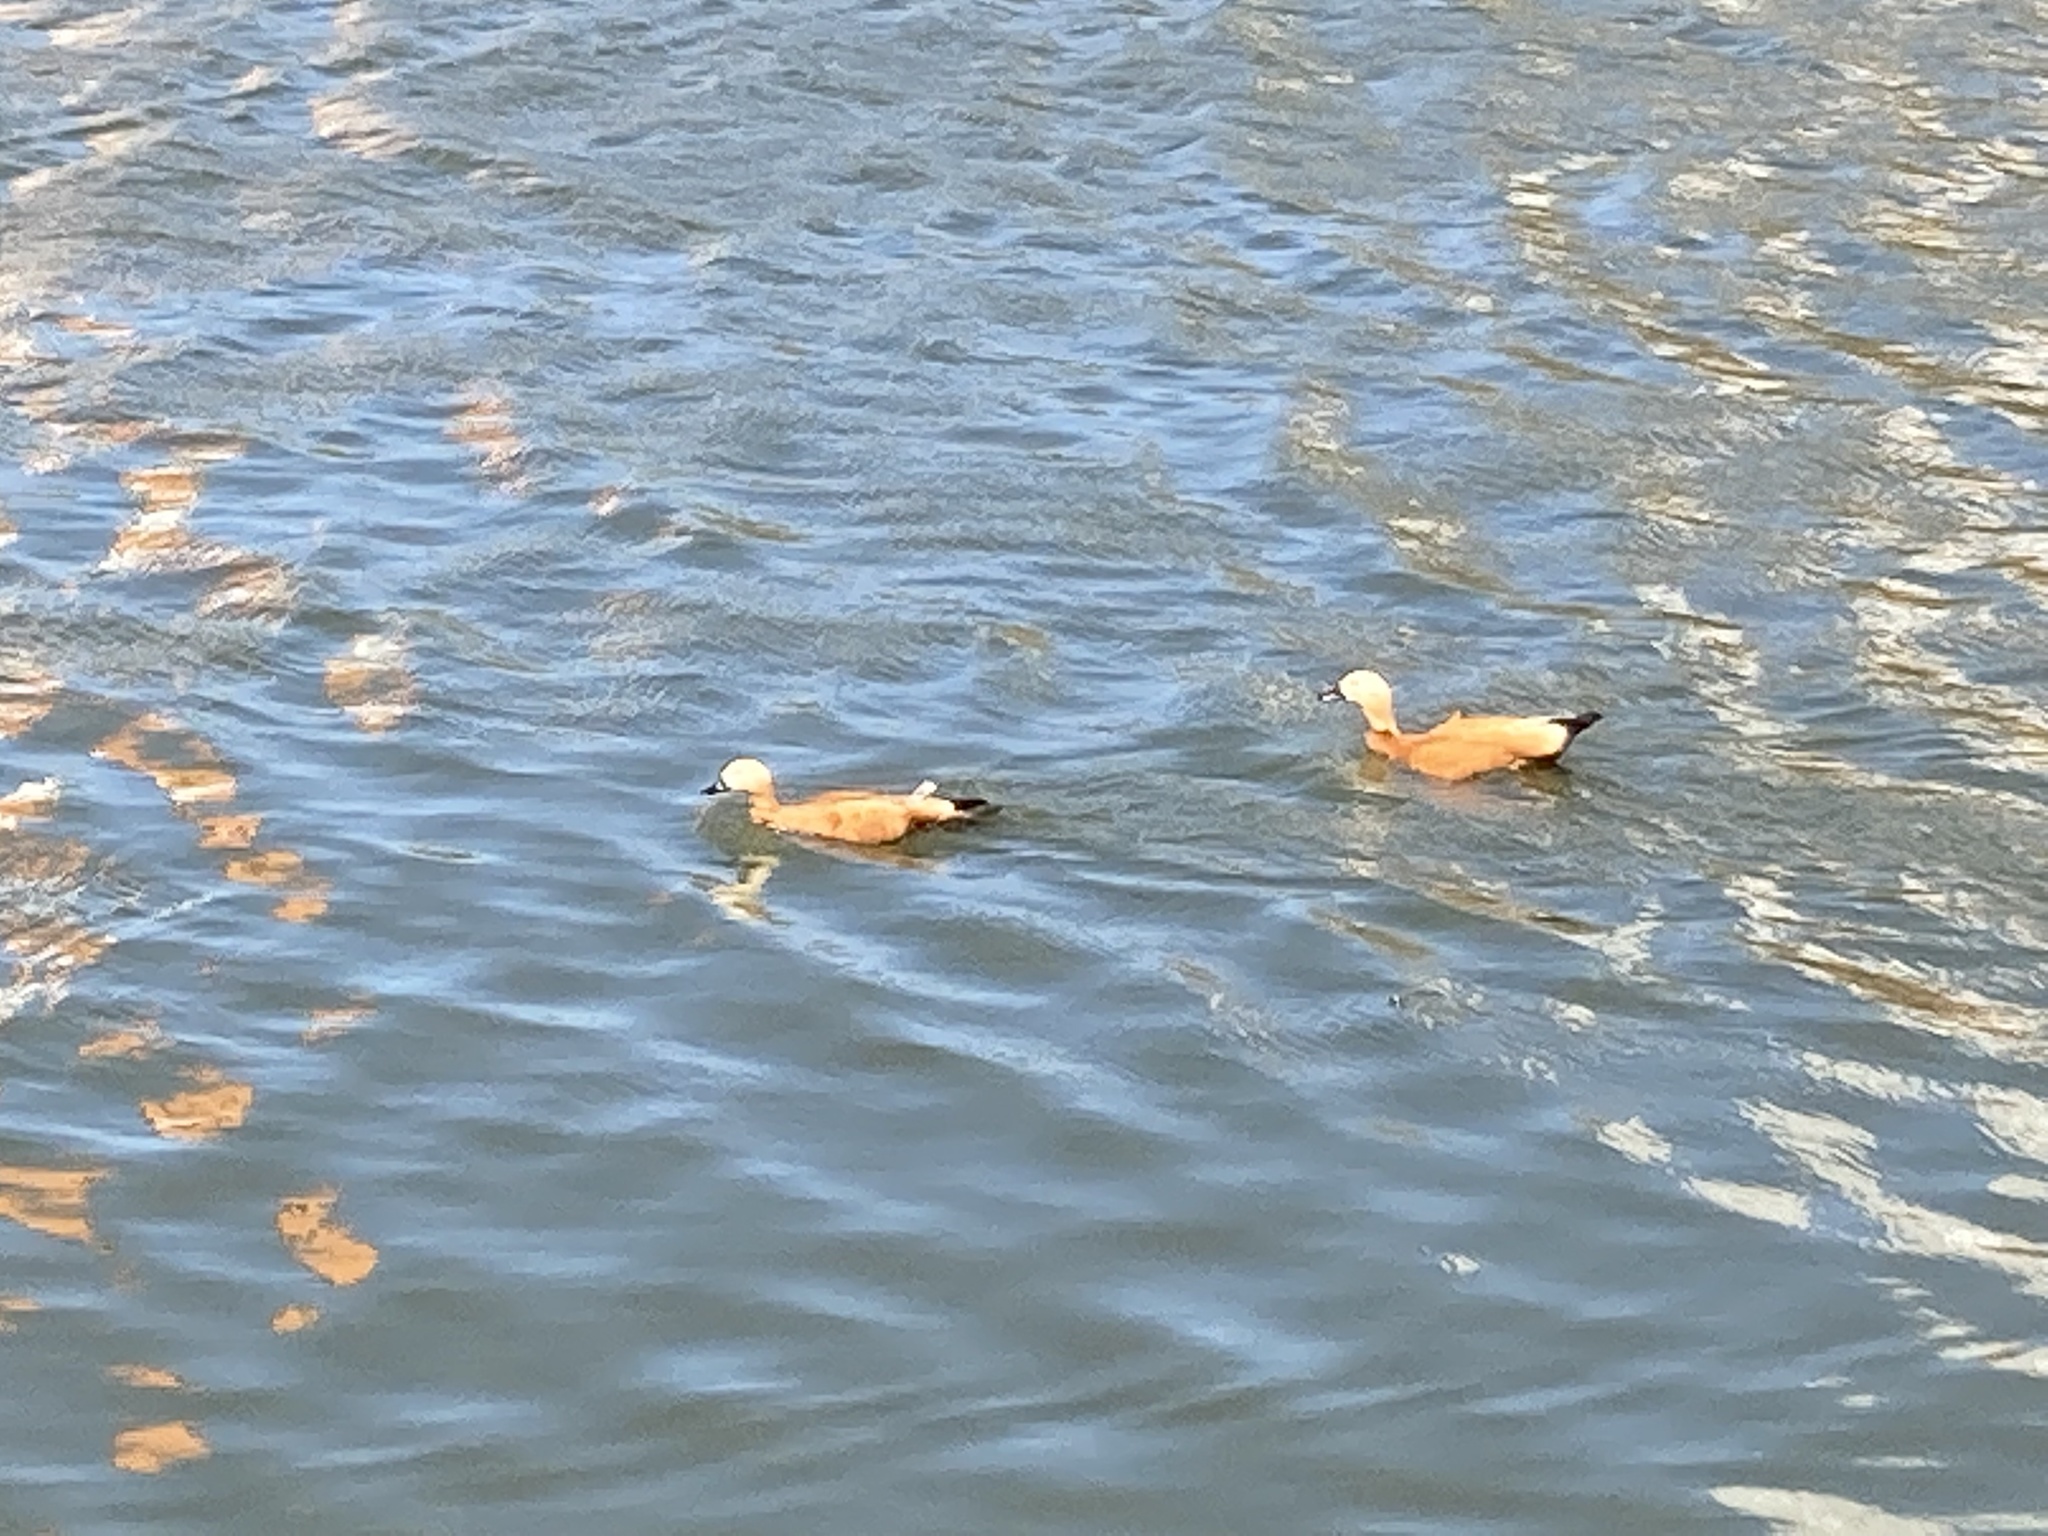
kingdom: Animalia
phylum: Chordata
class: Aves
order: Anseriformes
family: Anatidae
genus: Tadorna
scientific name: Tadorna ferruginea
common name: Ruddy shelduck
